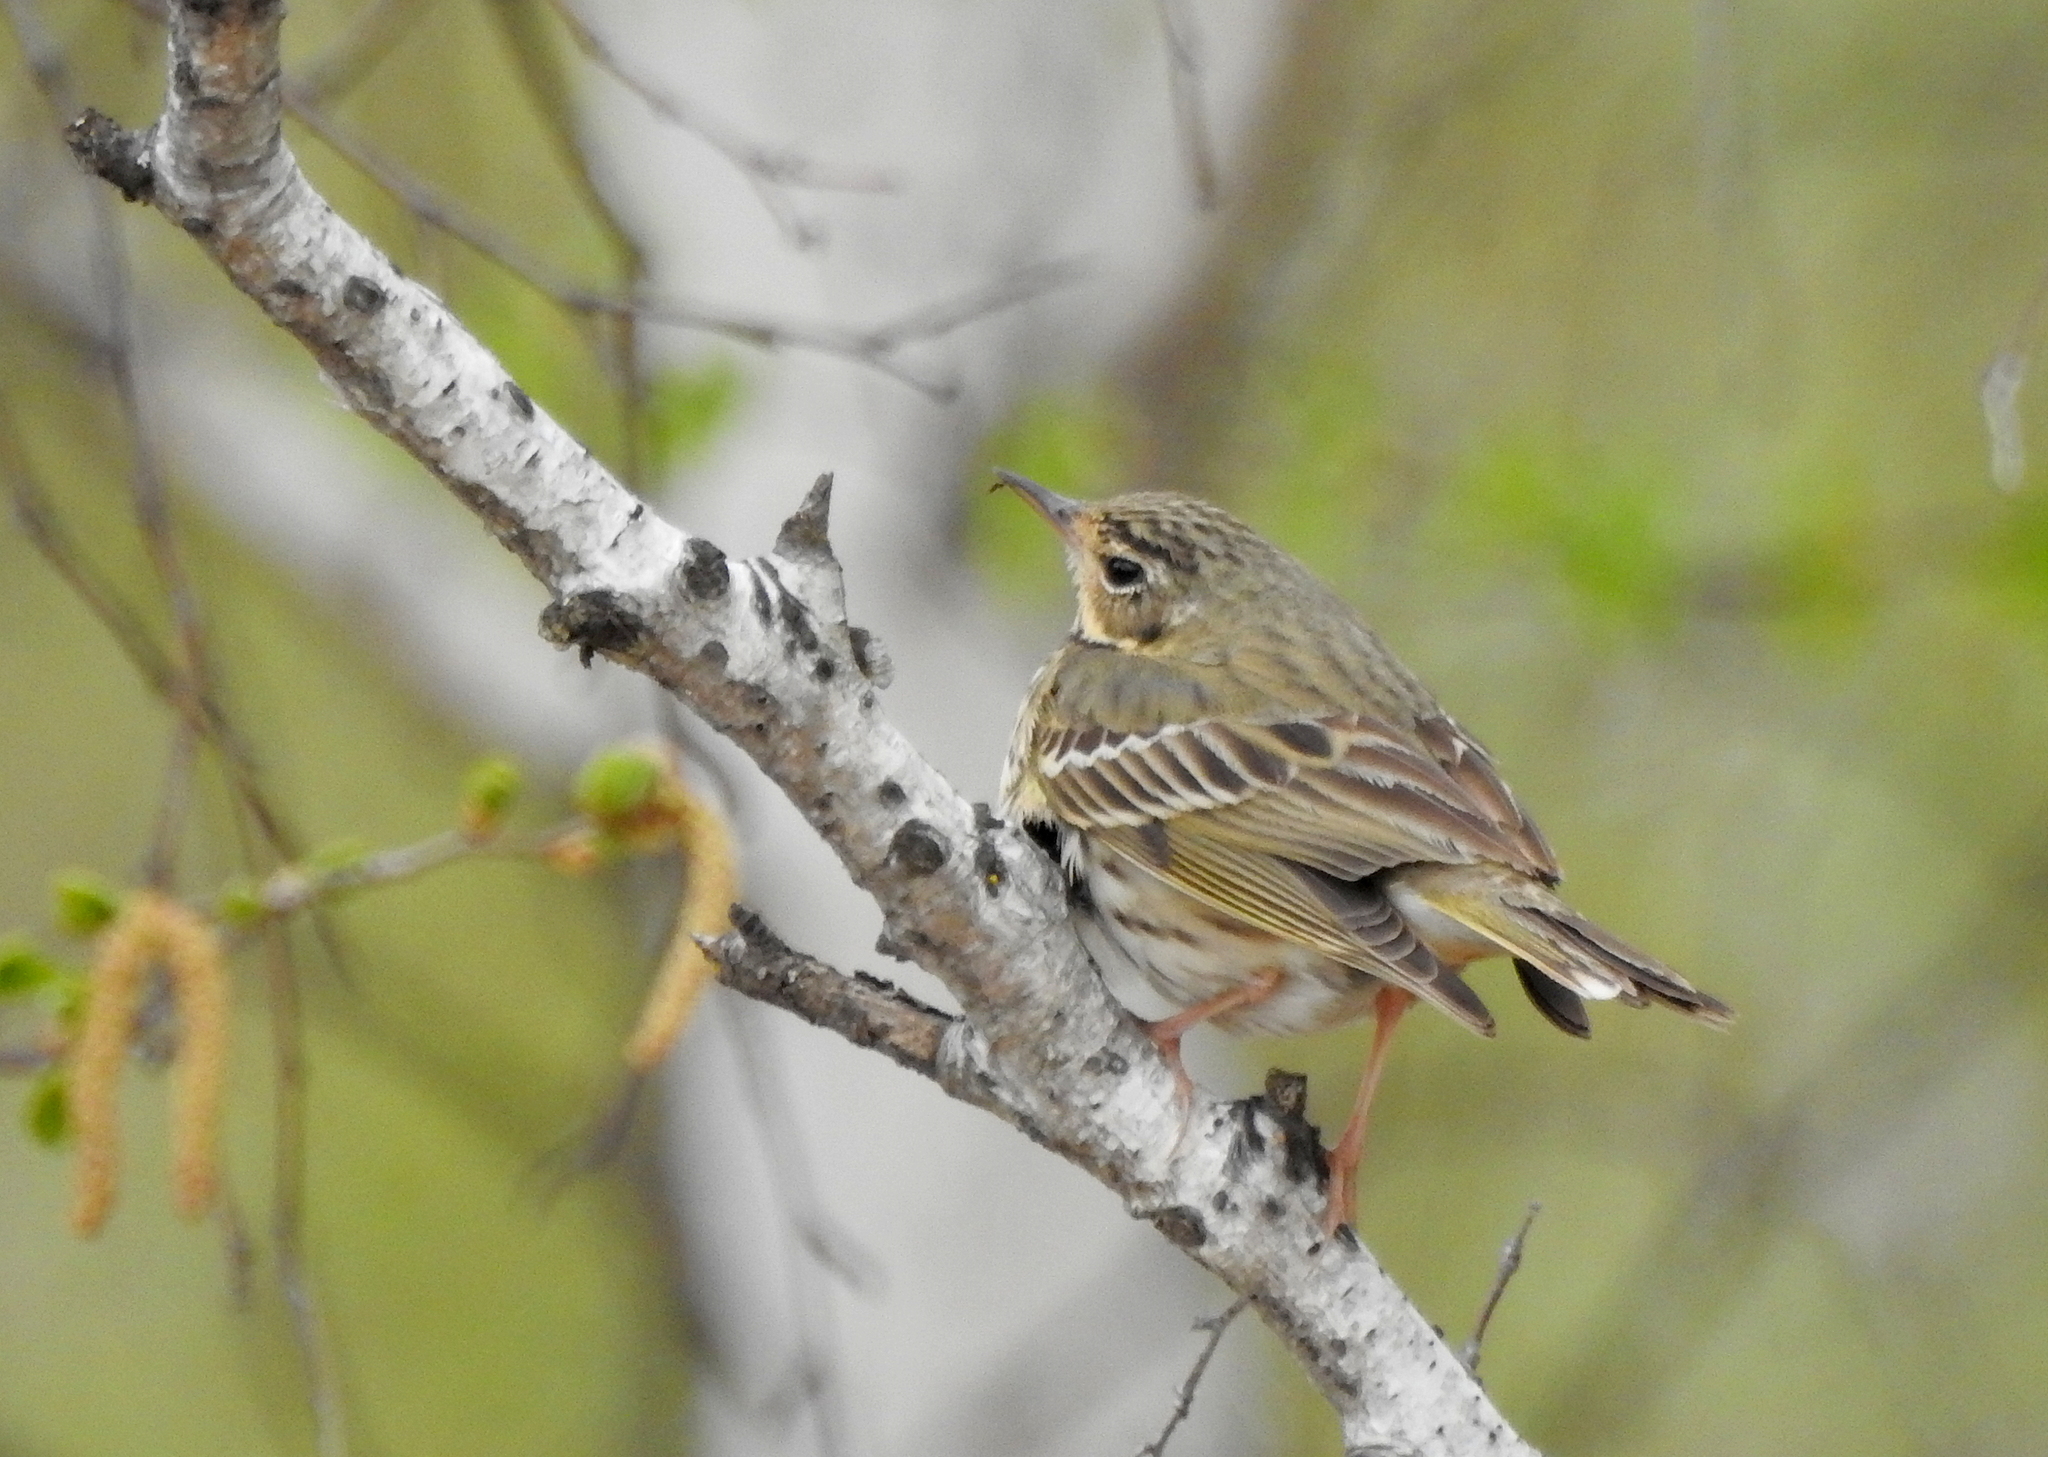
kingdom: Animalia
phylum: Chordata
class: Aves
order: Passeriformes
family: Motacillidae
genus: Anthus
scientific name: Anthus hodgsoni
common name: Olive-backed pipit
